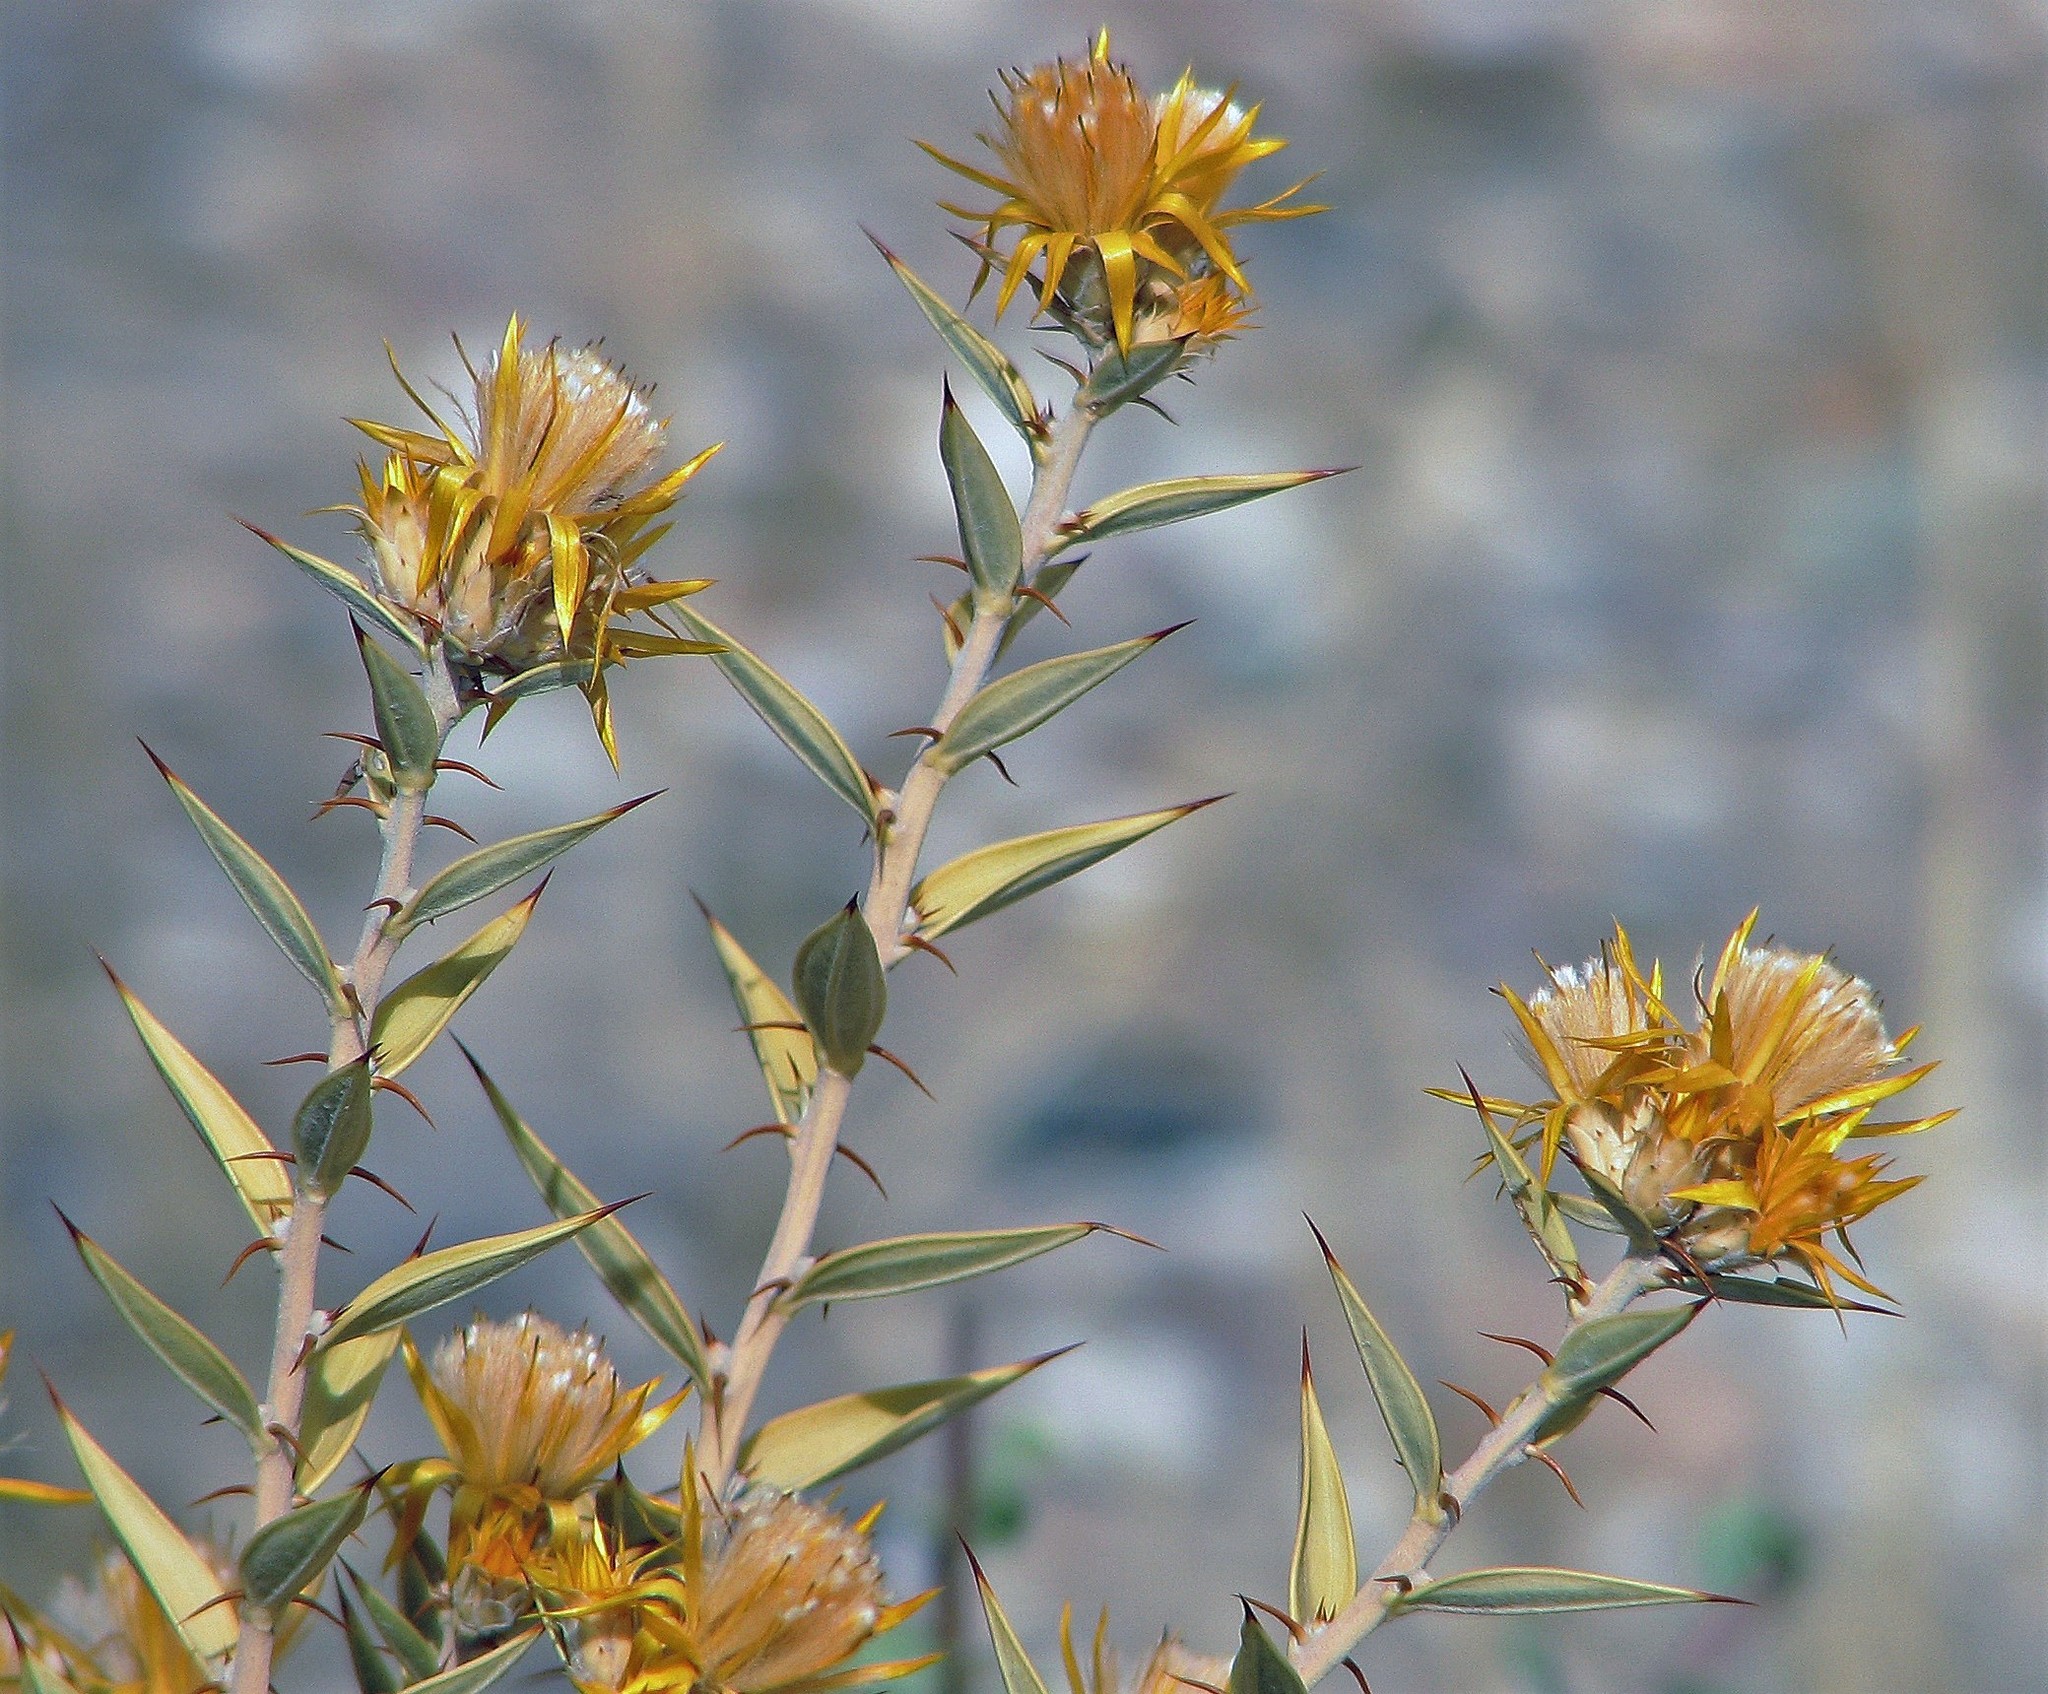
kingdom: Plantae
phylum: Tracheophyta
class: Magnoliopsida
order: Asterales
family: Asteraceae
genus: Chuquiraga
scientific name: Chuquiraga avellanedae
